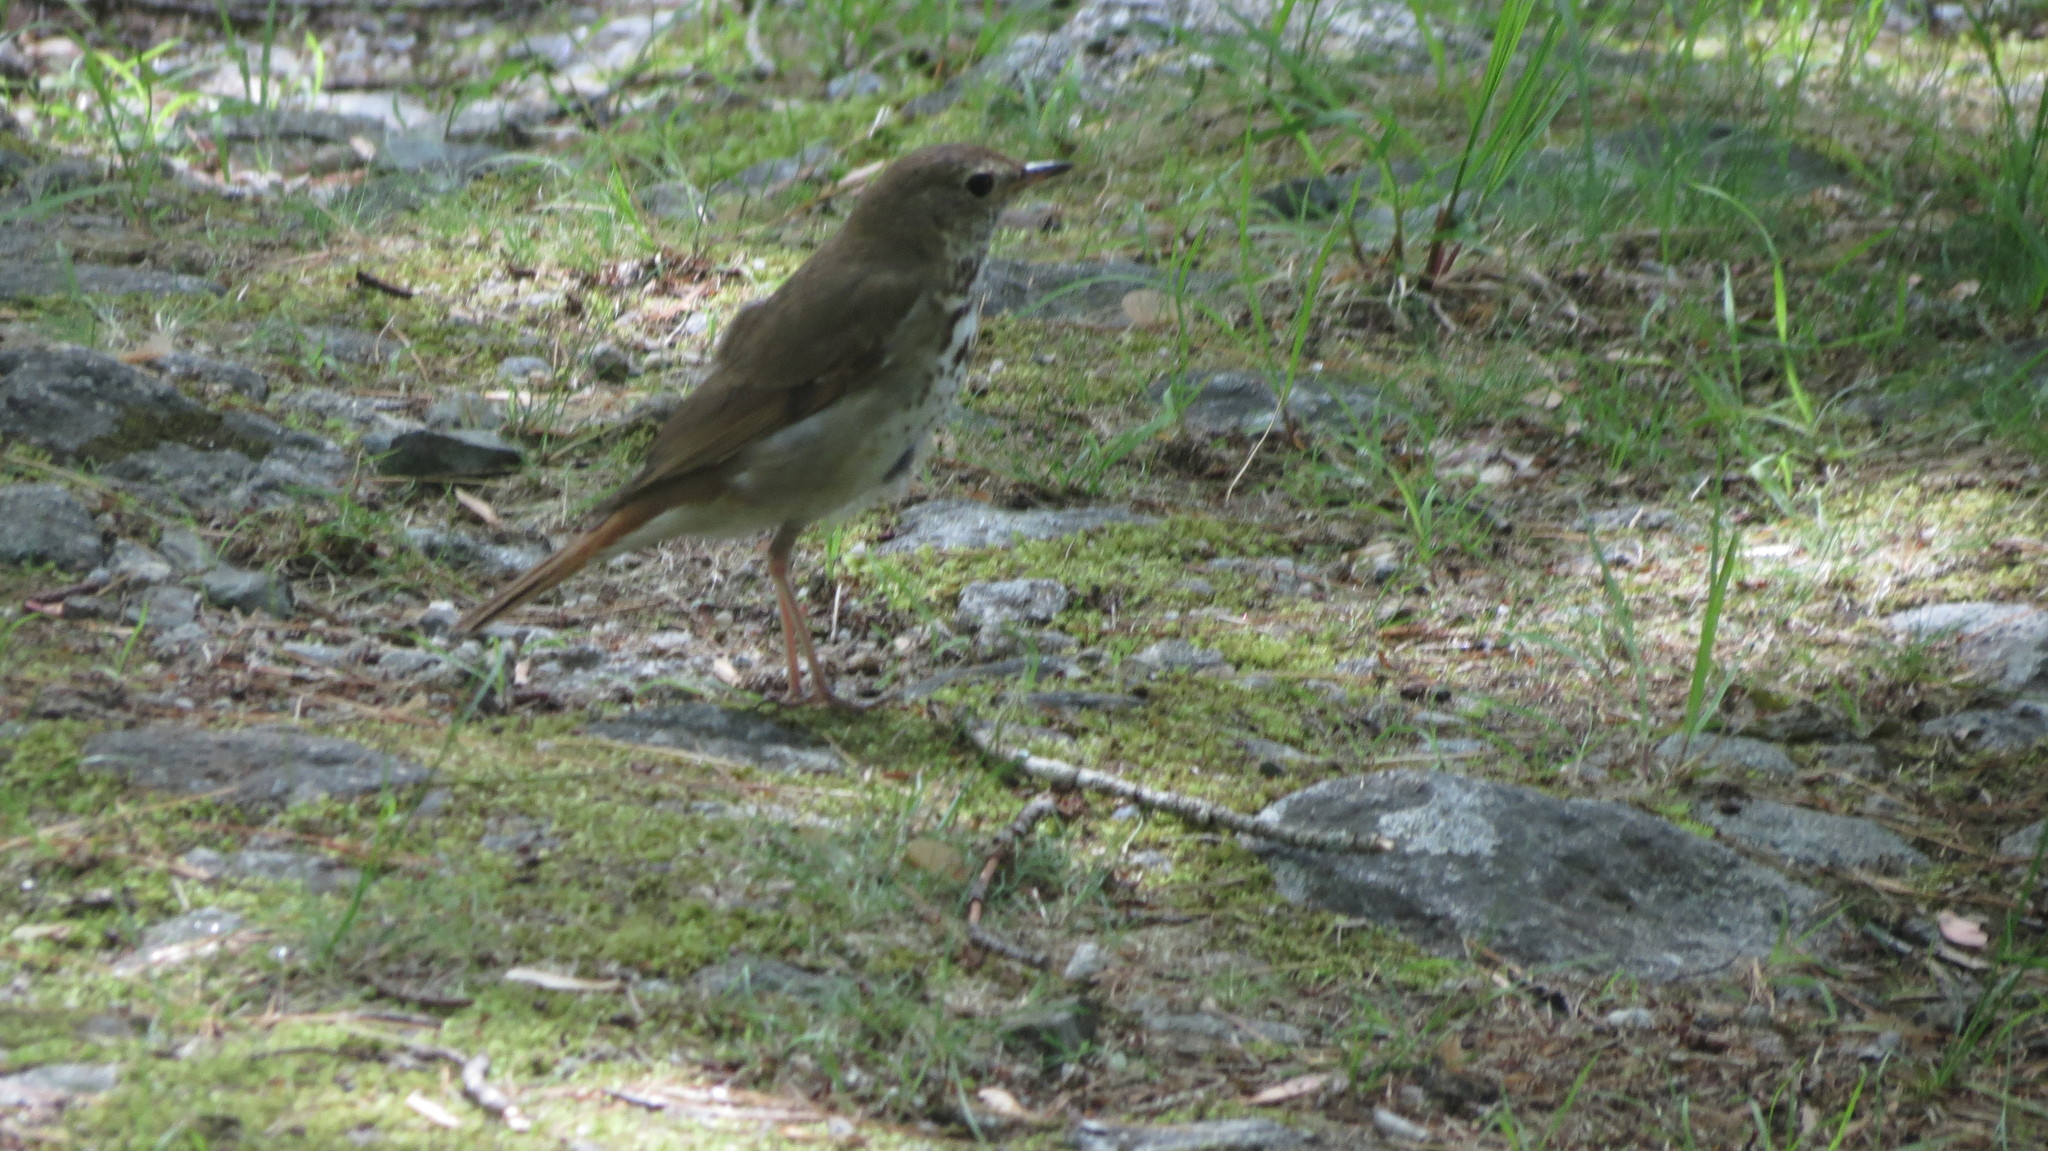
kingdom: Animalia
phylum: Chordata
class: Aves
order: Passeriformes
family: Turdidae
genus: Catharus
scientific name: Catharus guttatus
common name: Hermit thrush
